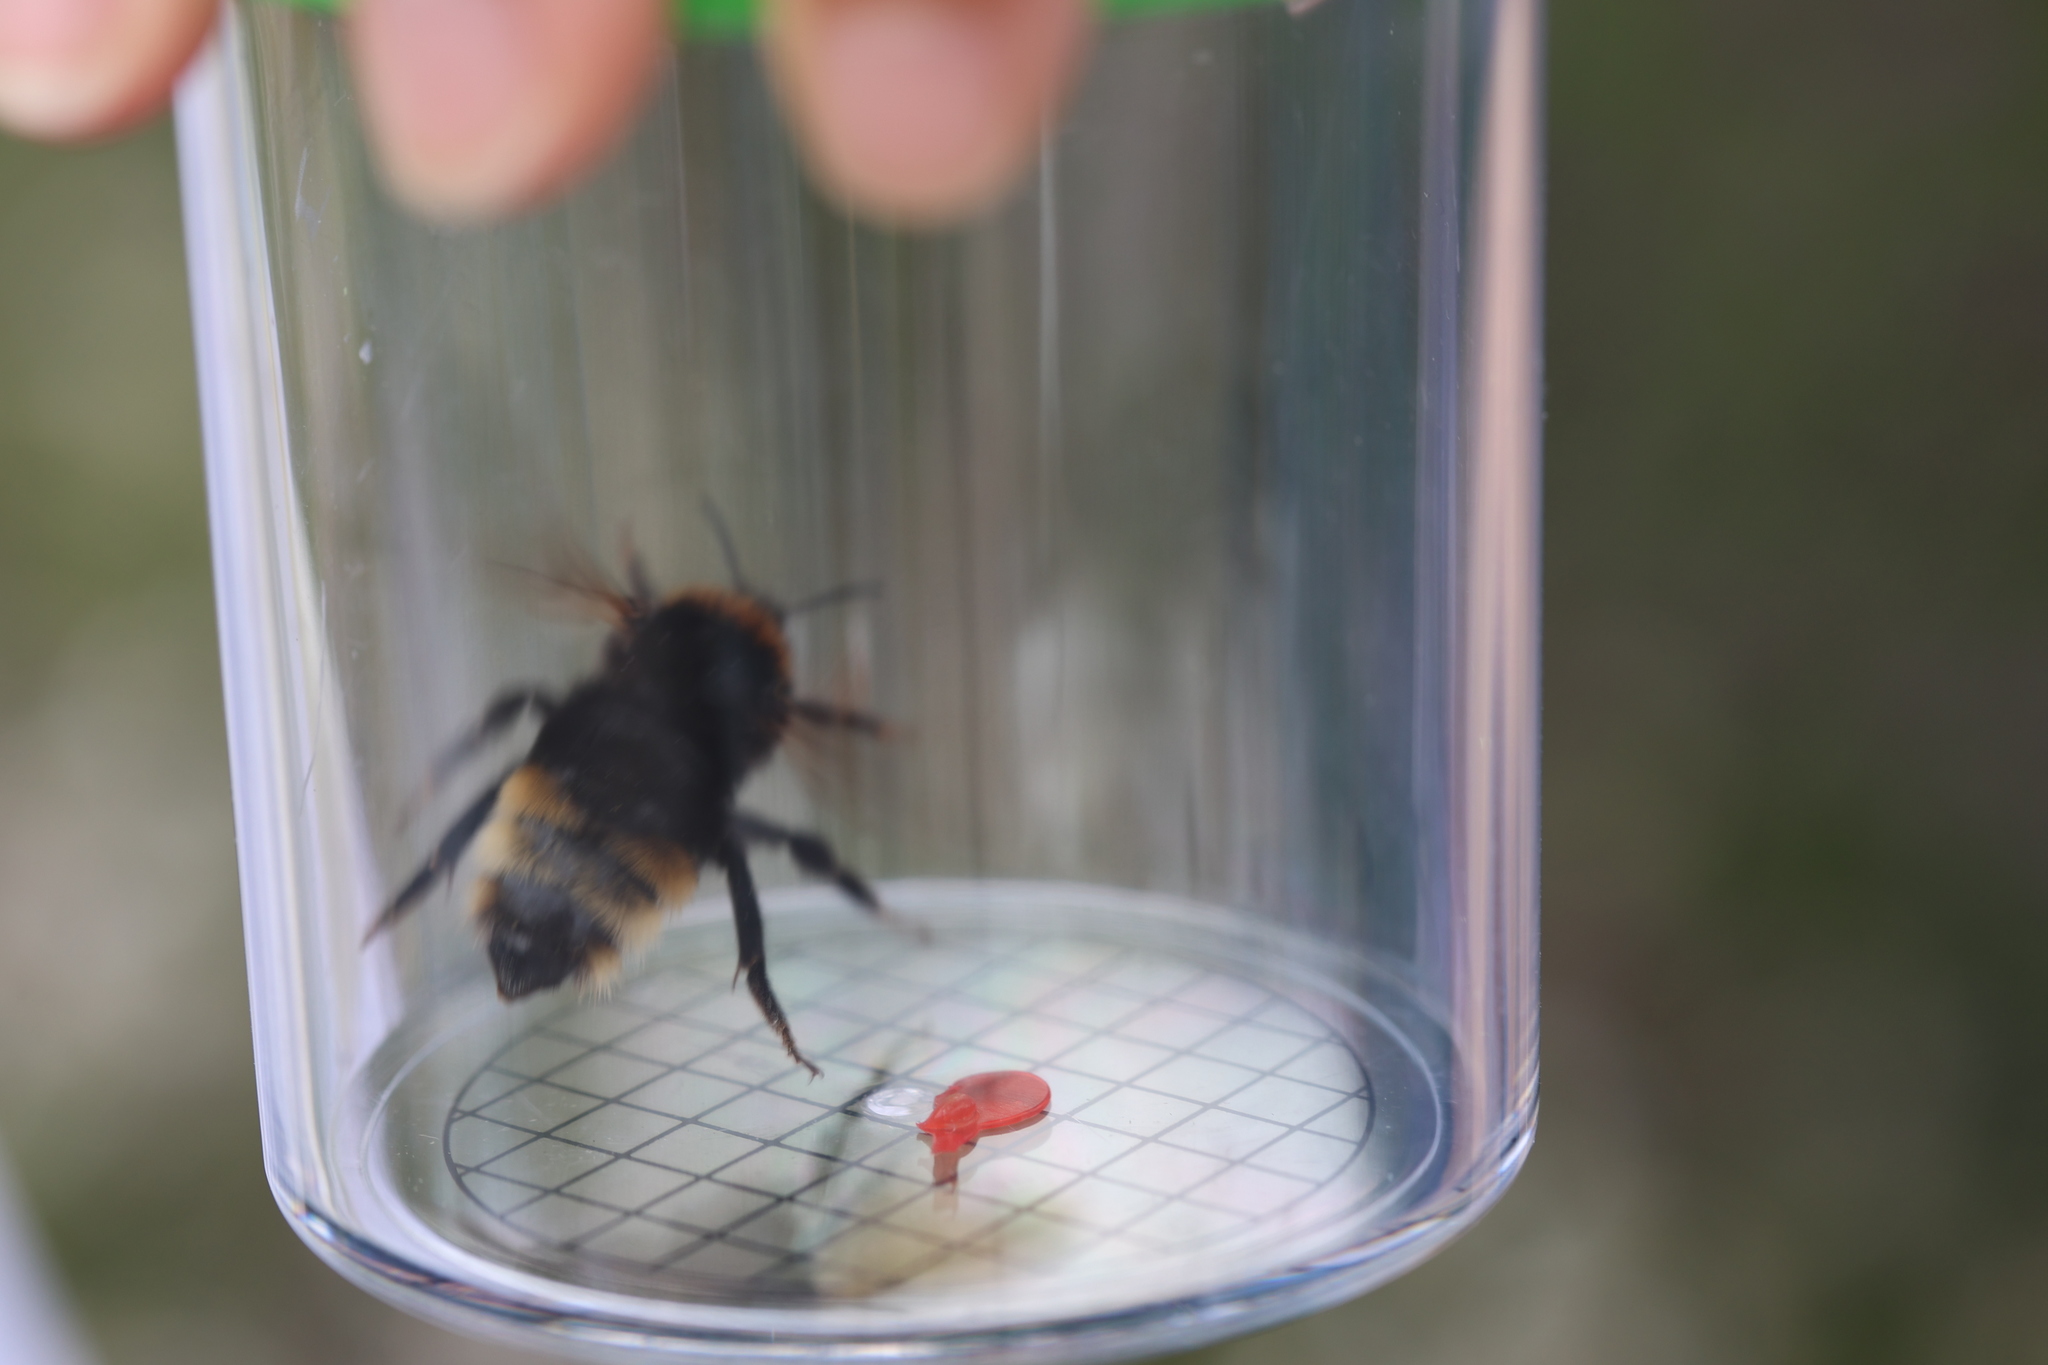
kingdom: Animalia
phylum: Arthropoda
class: Insecta
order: Hymenoptera
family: Apidae
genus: Bombus
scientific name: Bombus vestalis
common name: Vestal cuckoo bee
